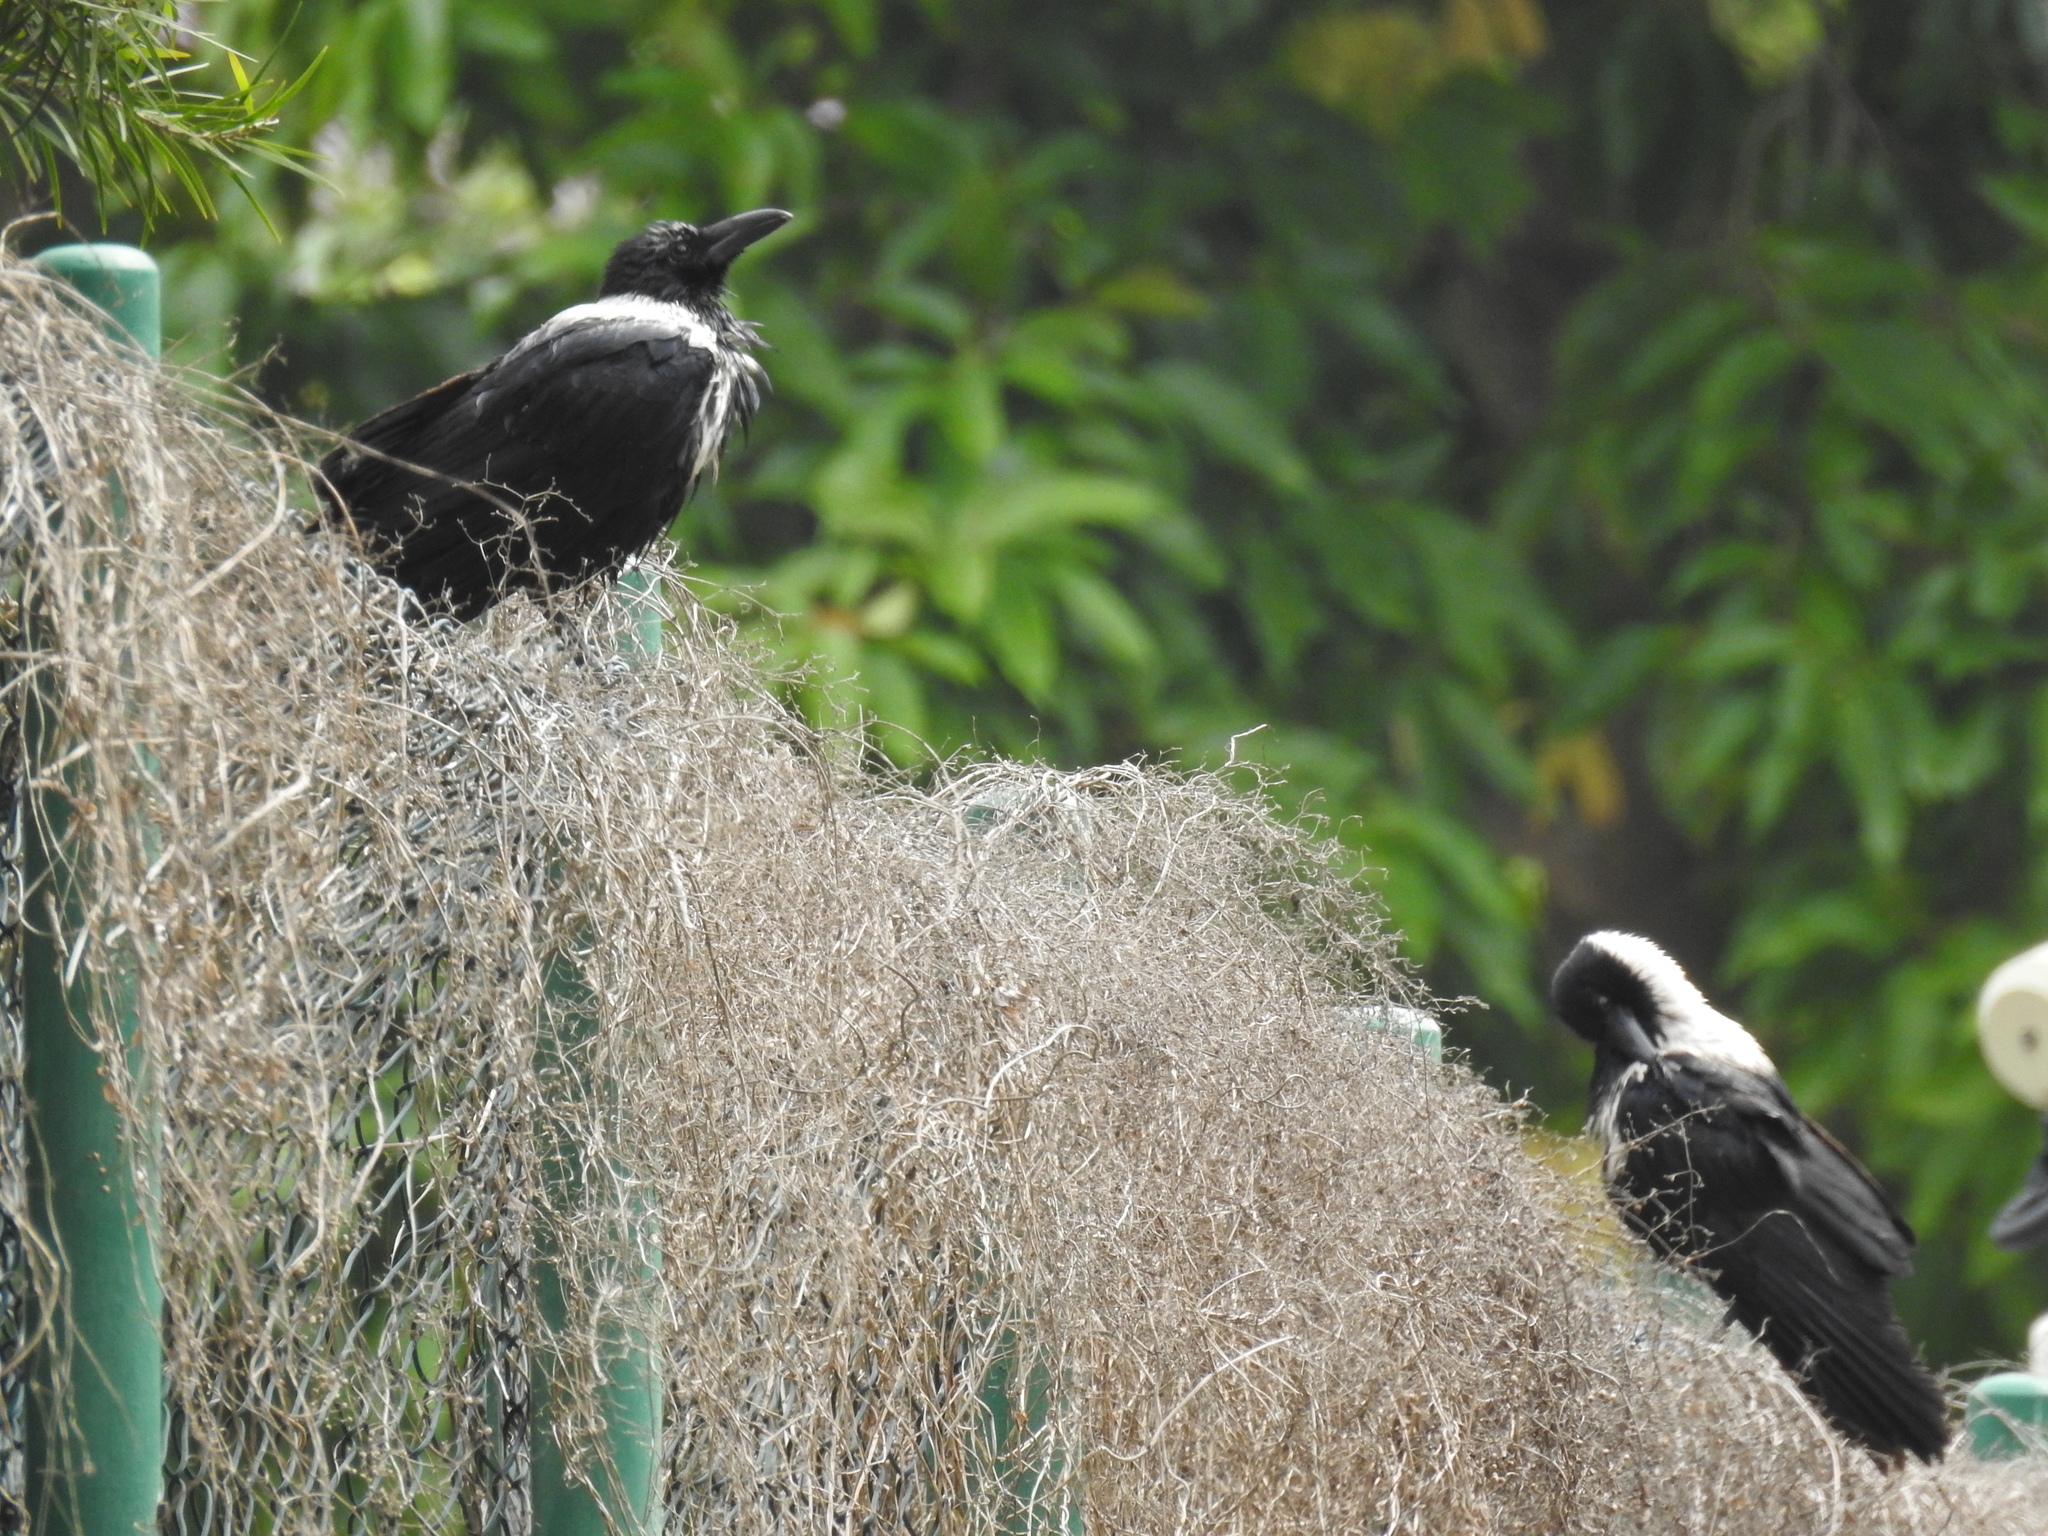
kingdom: Animalia
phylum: Chordata
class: Aves
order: Passeriformes
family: Corvidae
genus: Corvus
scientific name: Corvus pectoralis
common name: Collared crow
